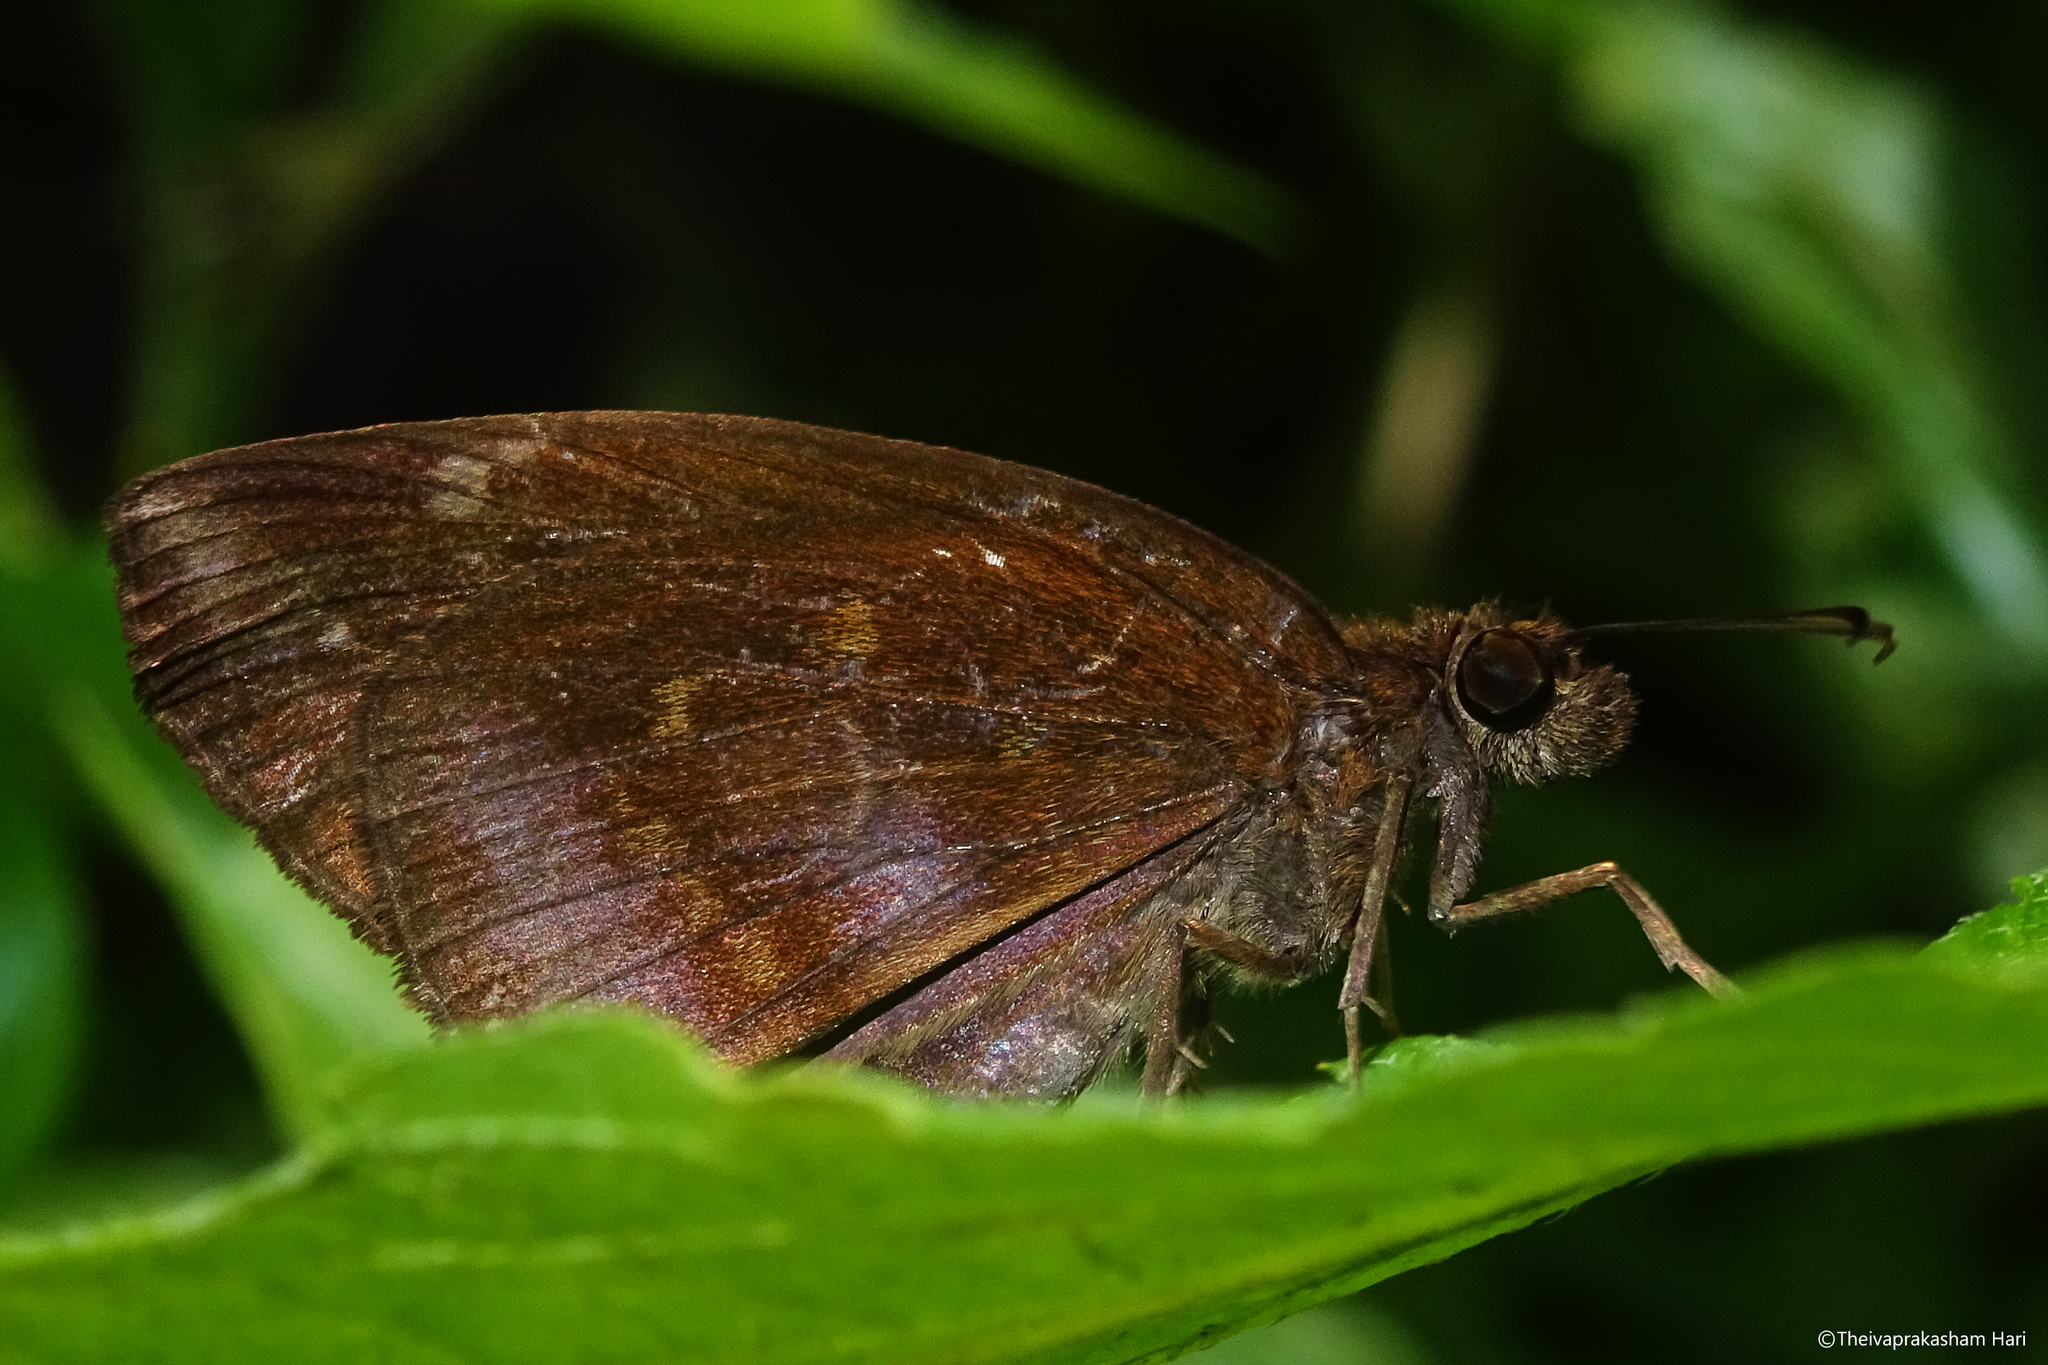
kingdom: Animalia
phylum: Arthropoda
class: Insecta
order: Lepidoptera
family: Hesperiidae
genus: Psolos
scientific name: Psolos fuligo
